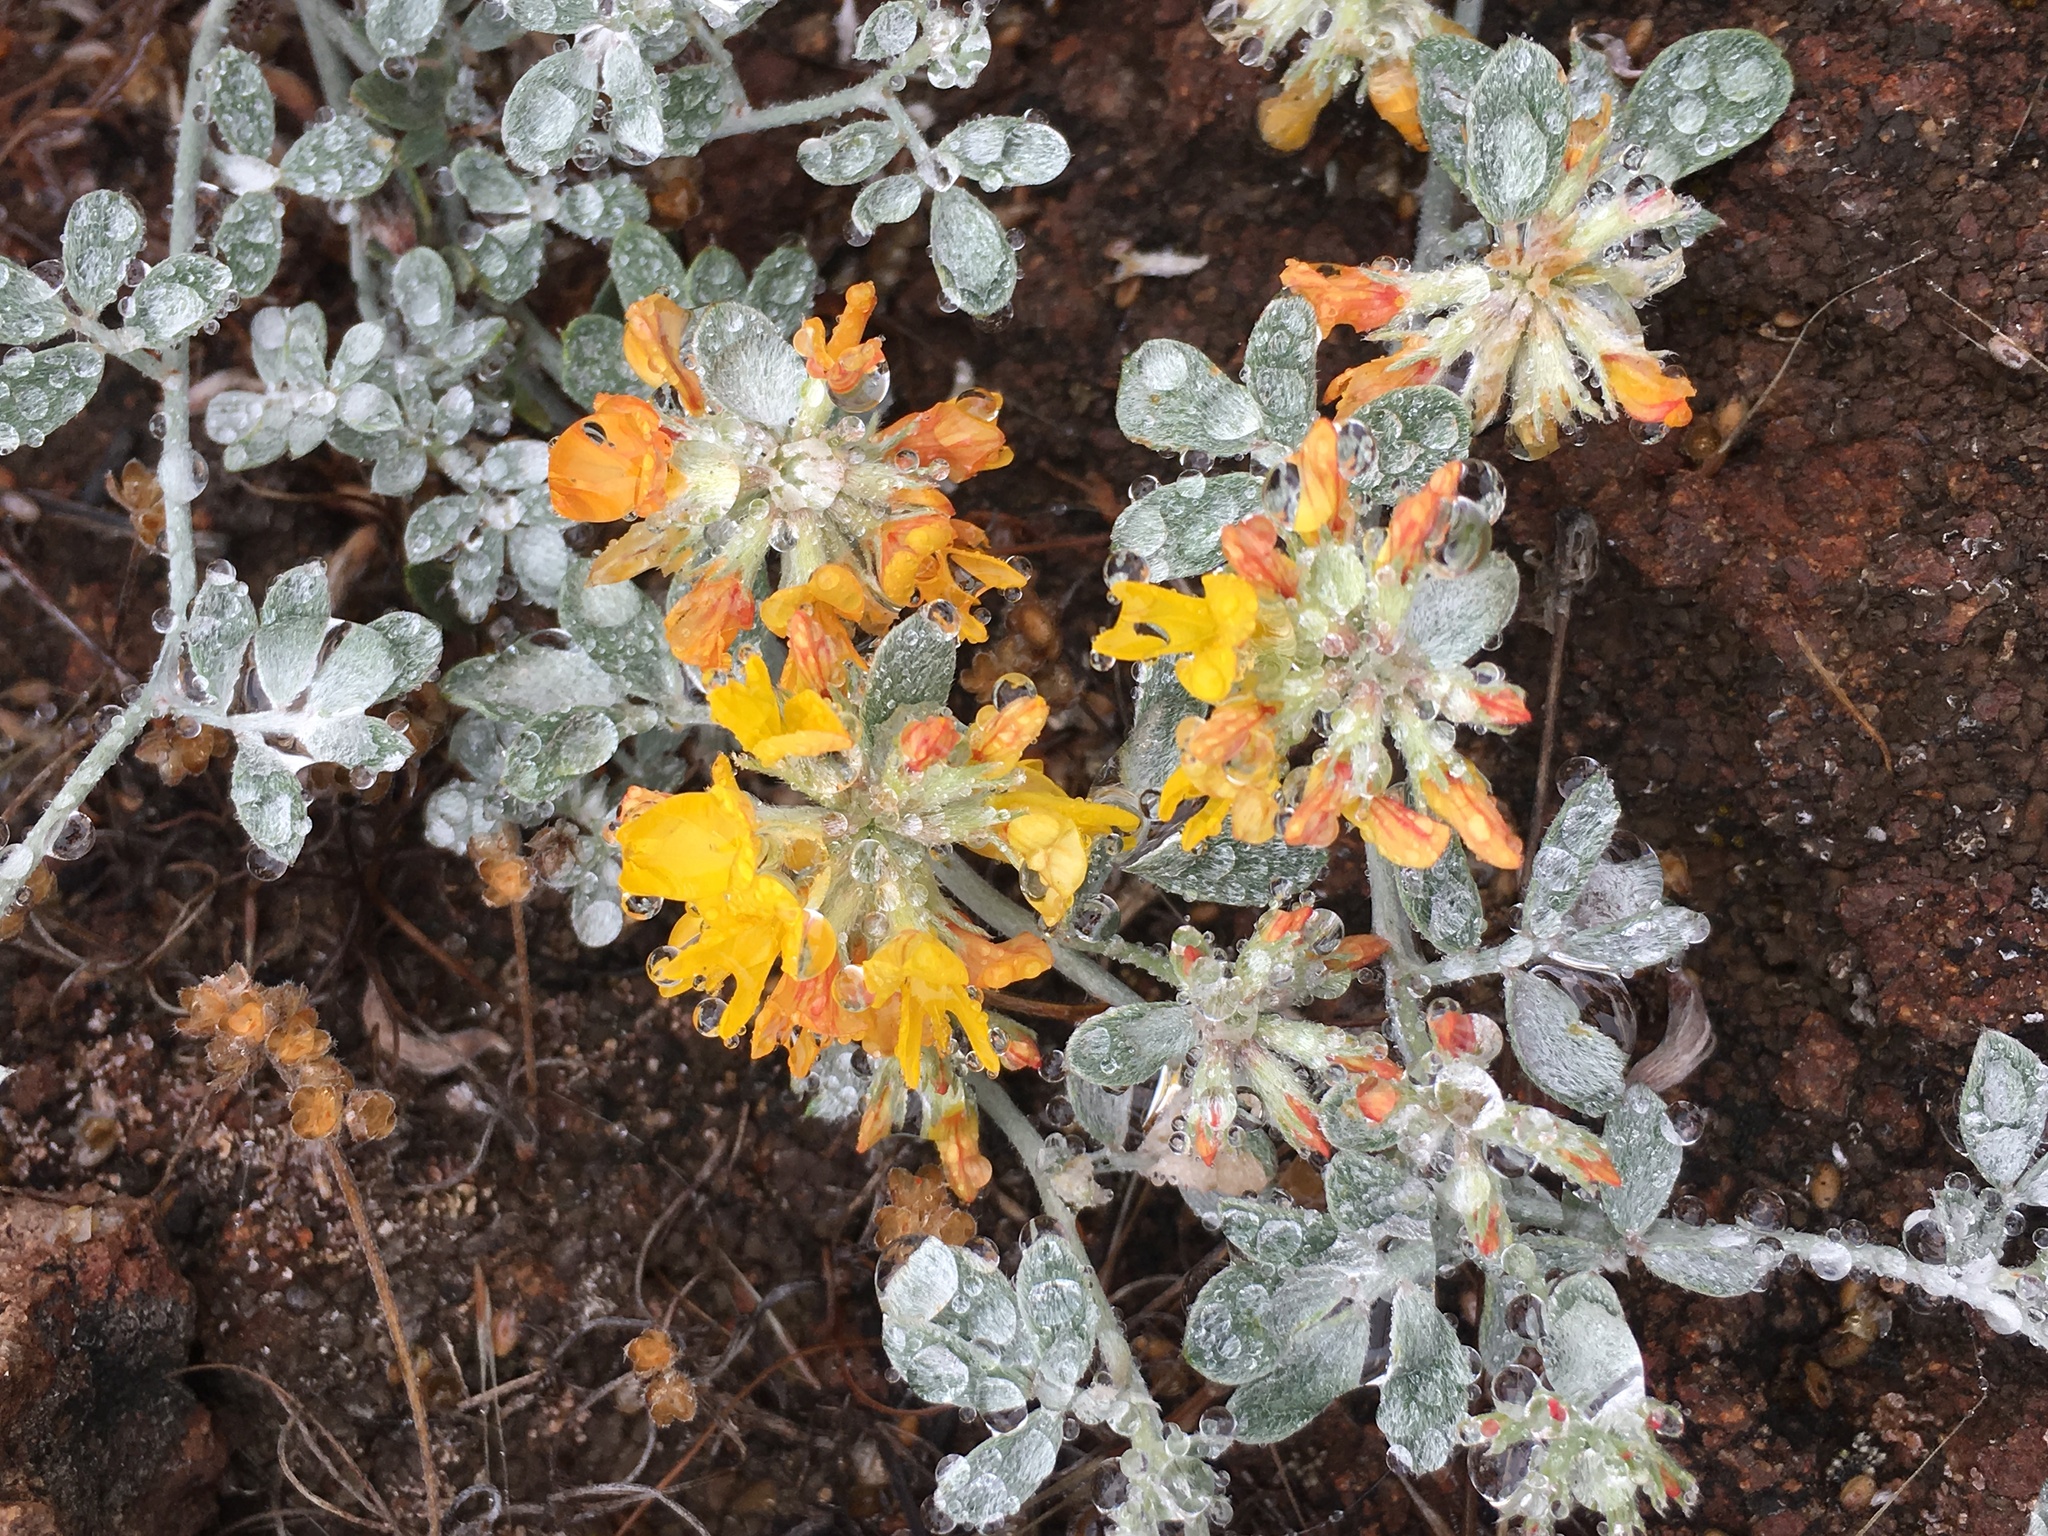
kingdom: Plantae
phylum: Tracheophyta
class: Magnoliopsida
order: Fabales
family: Fabaceae
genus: Acmispon
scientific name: Acmispon argophyllus
